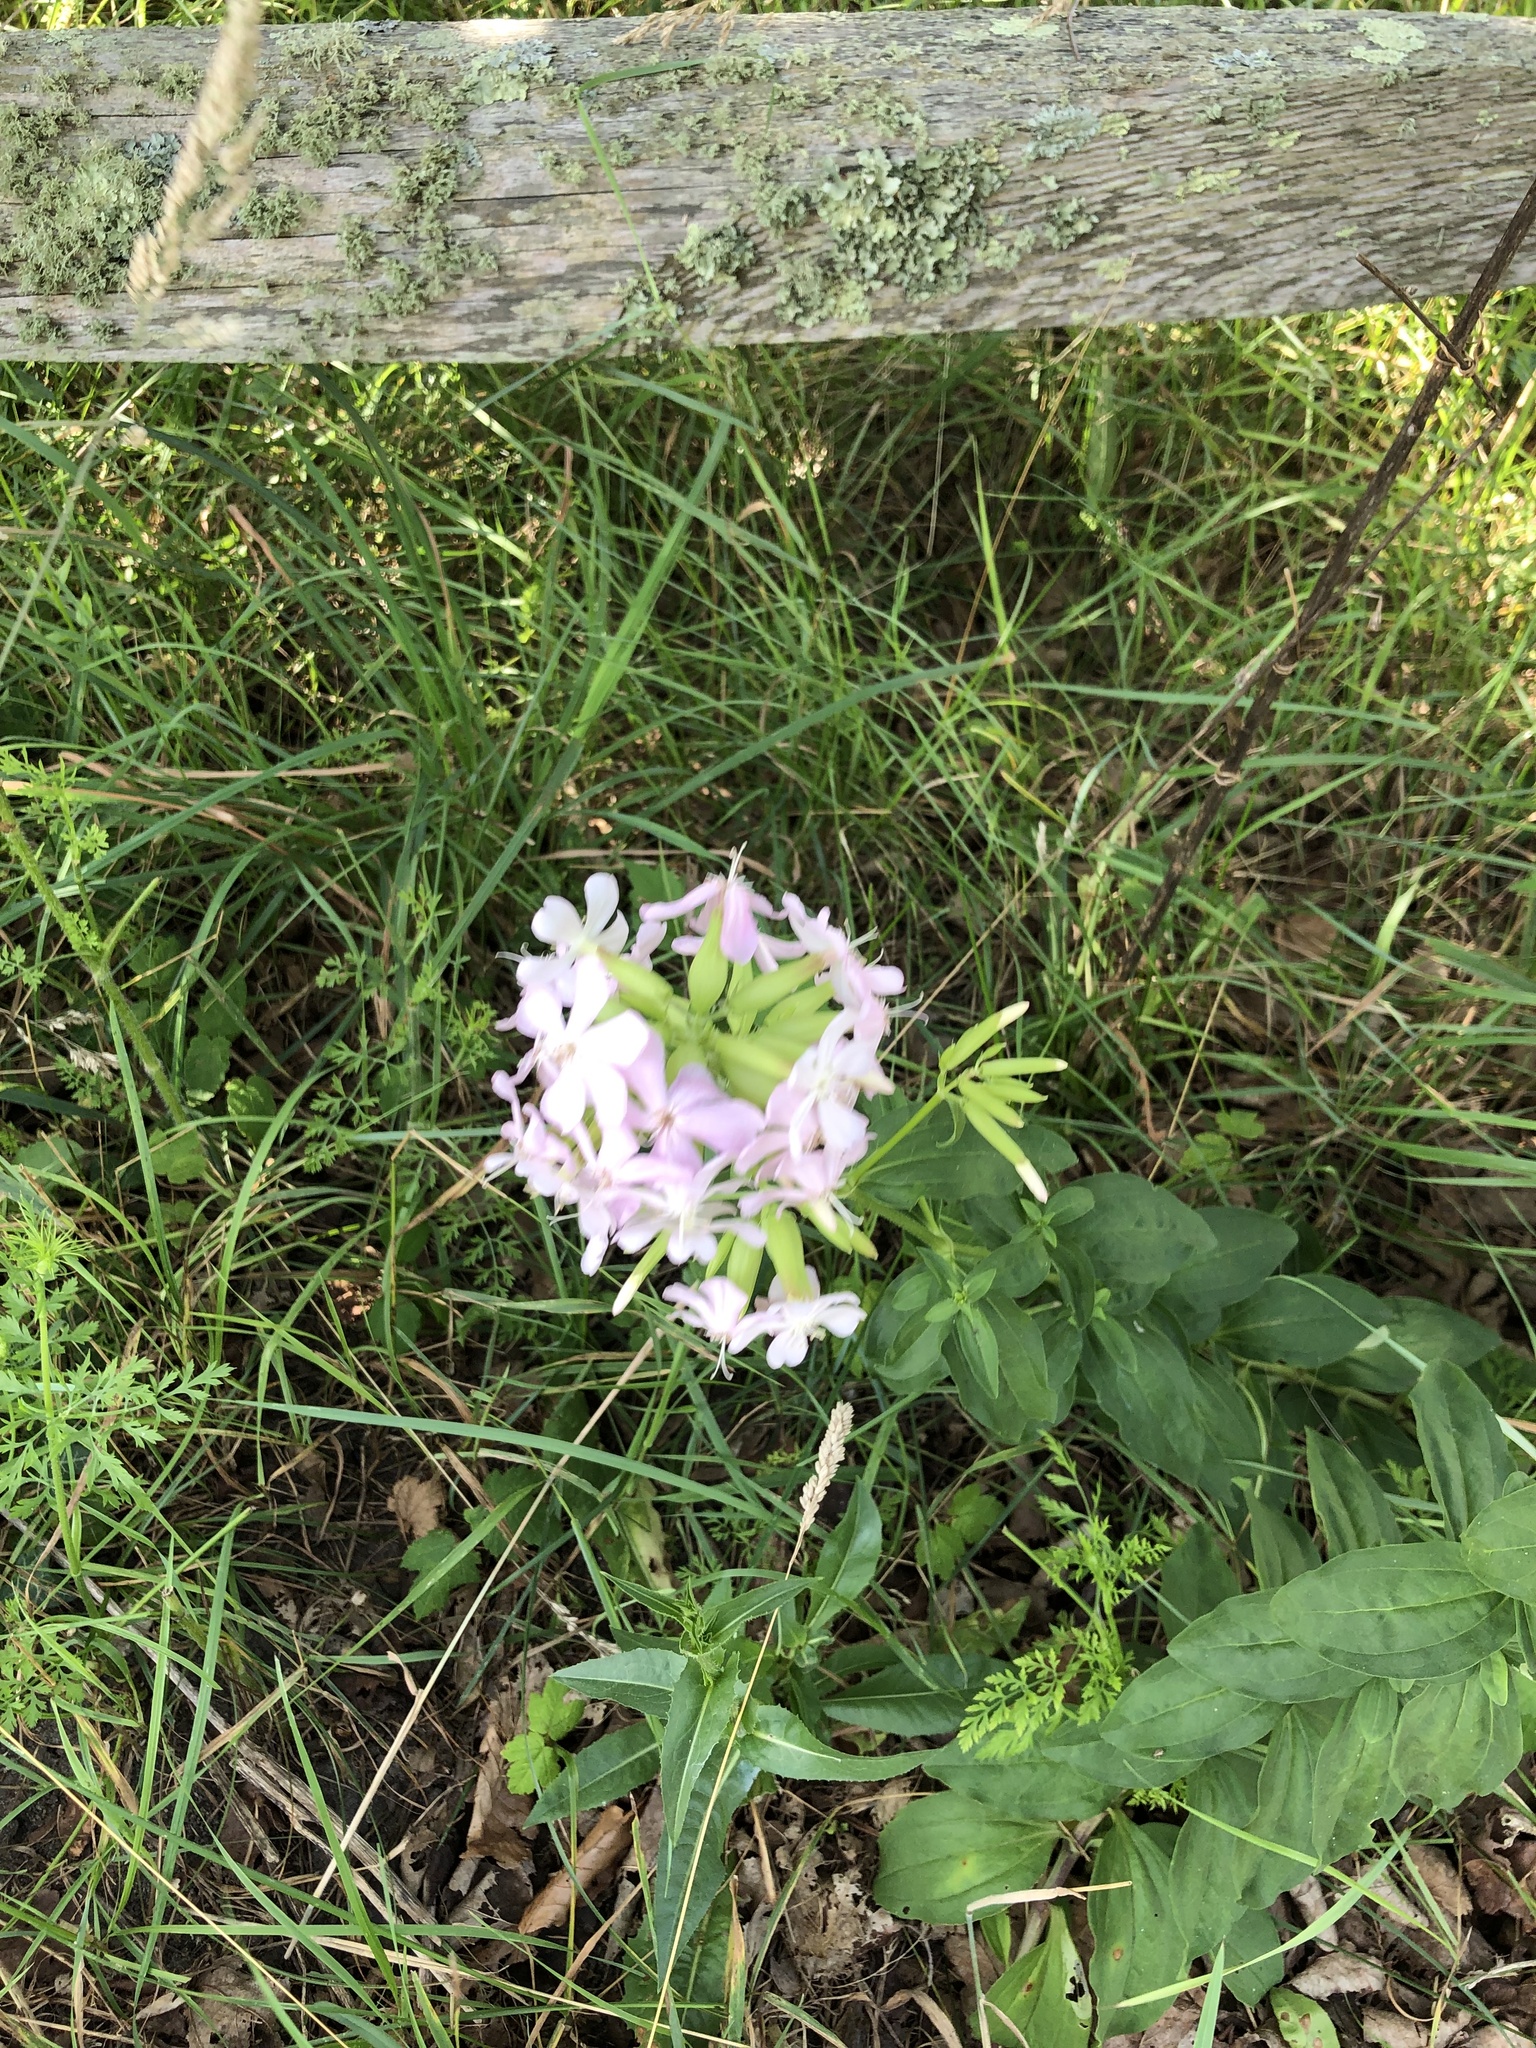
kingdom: Plantae
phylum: Tracheophyta
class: Magnoliopsida
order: Caryophyllales
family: Caryophyllaceae
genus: Saponaria
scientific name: Saponaria officinalis
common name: Soapwort
